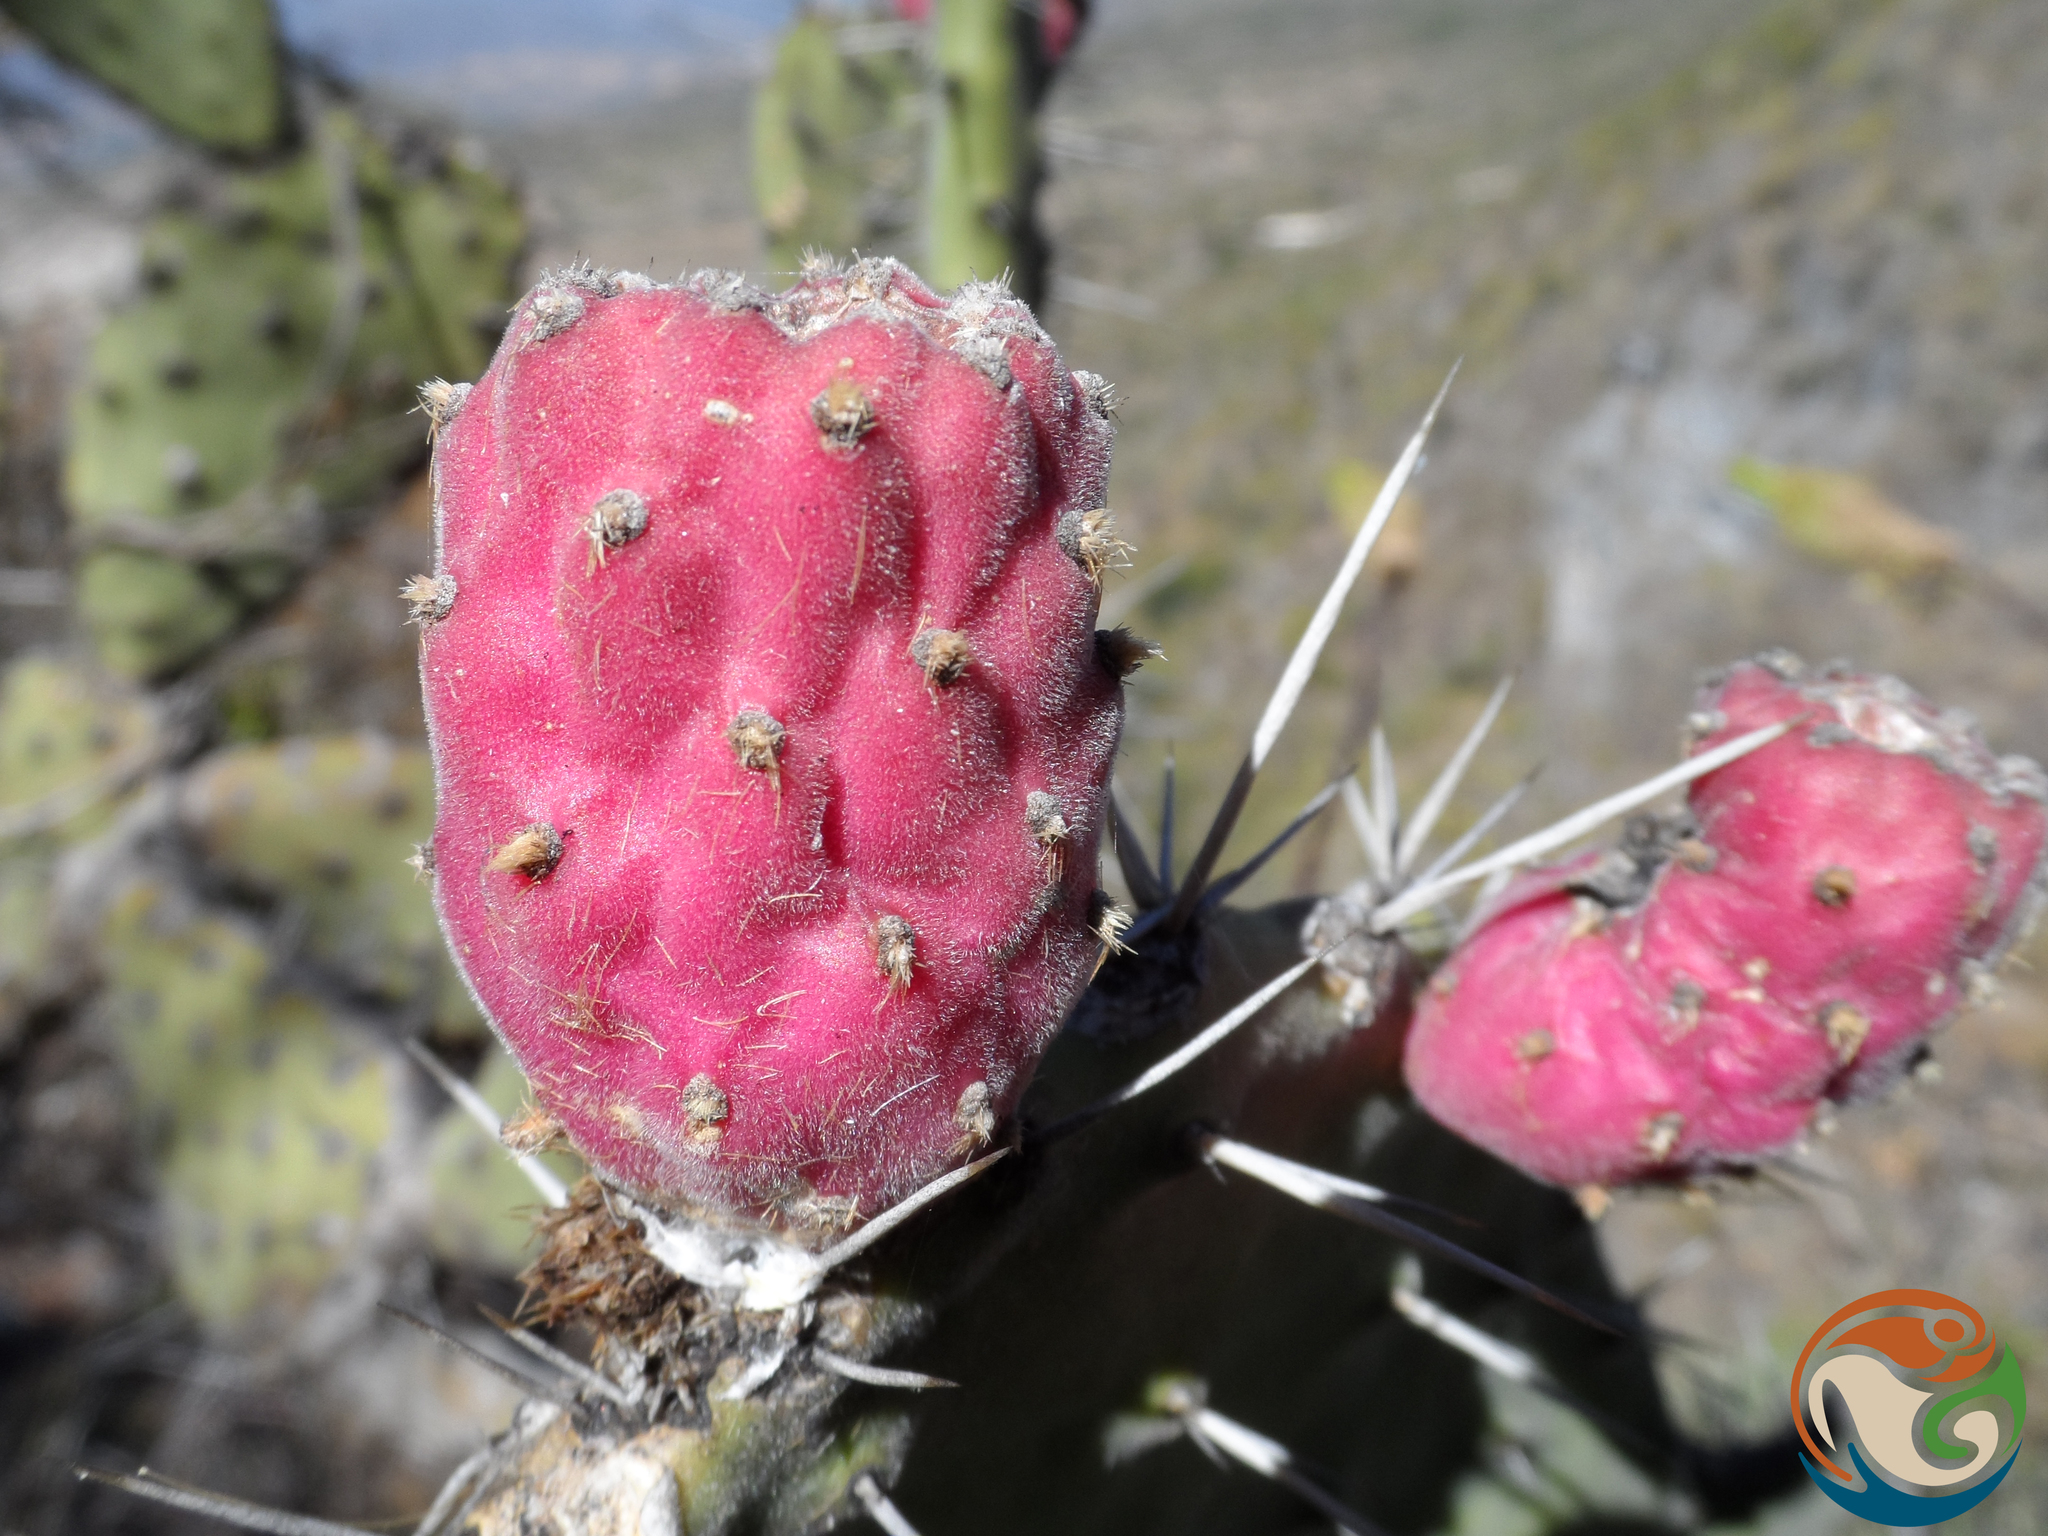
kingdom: Plantae
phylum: Tracheophyta
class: Magnoliopsida
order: Caryophyllales
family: Cactaceae
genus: Opuntia
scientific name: Opuntia tomentosa
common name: Woollyjoint pricklypear
